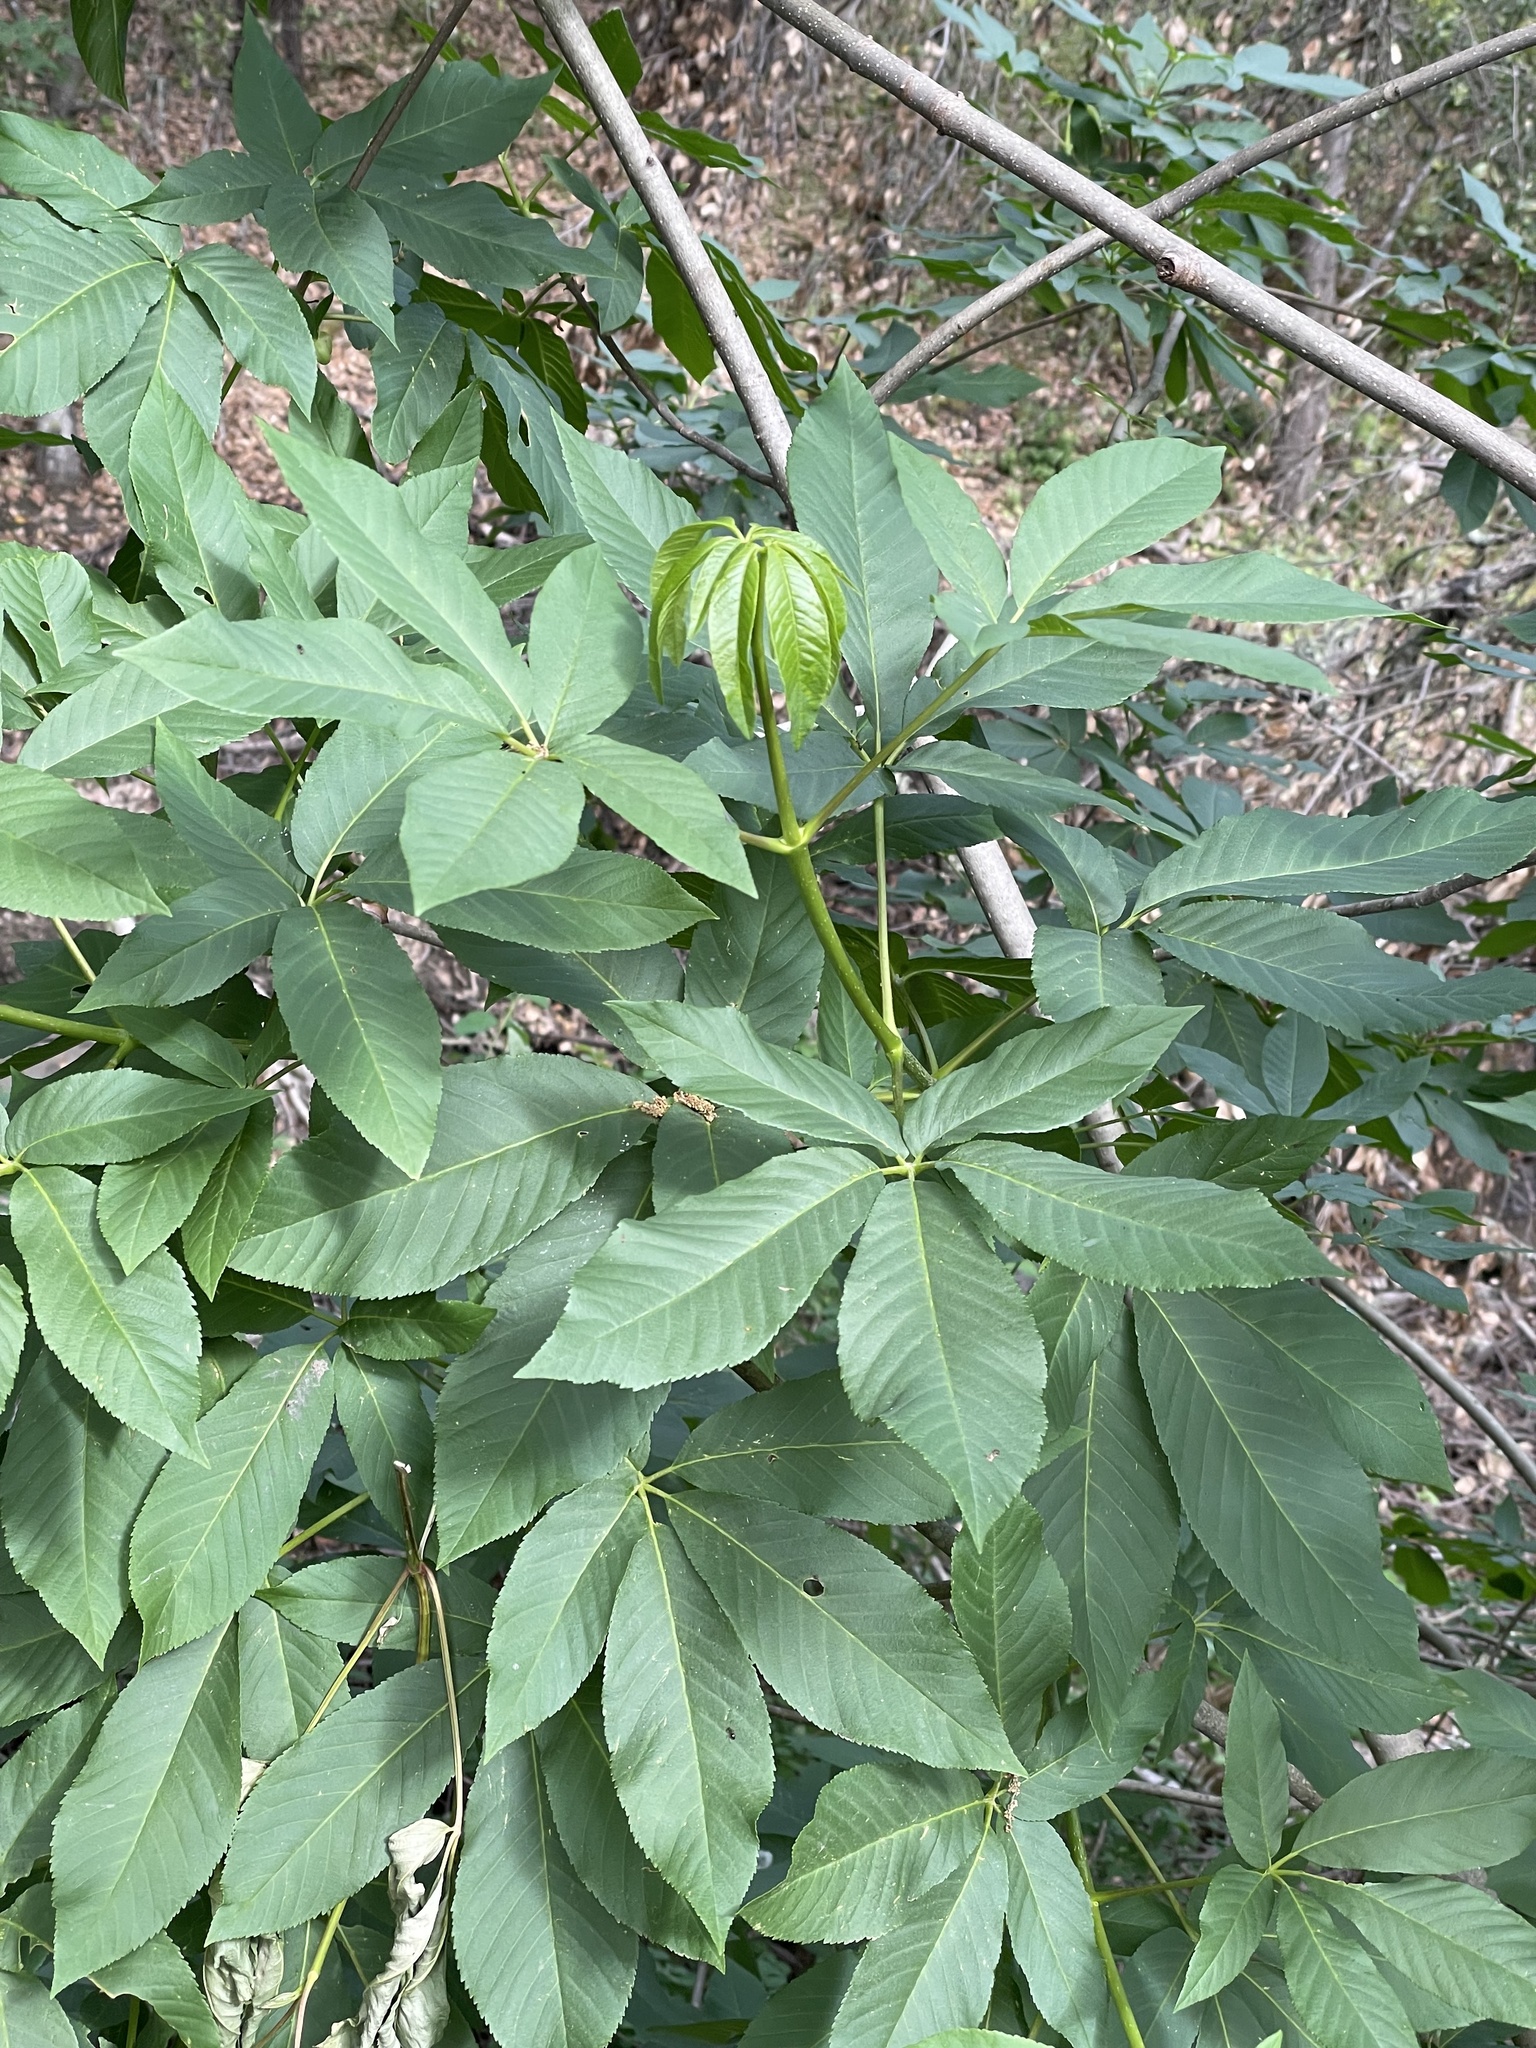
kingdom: Plantae
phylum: Tracheophyta
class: Magnoliopsida
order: Sapindales
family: Sapindaceae
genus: Aesculus
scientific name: Aesculus californica
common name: California buckeye
